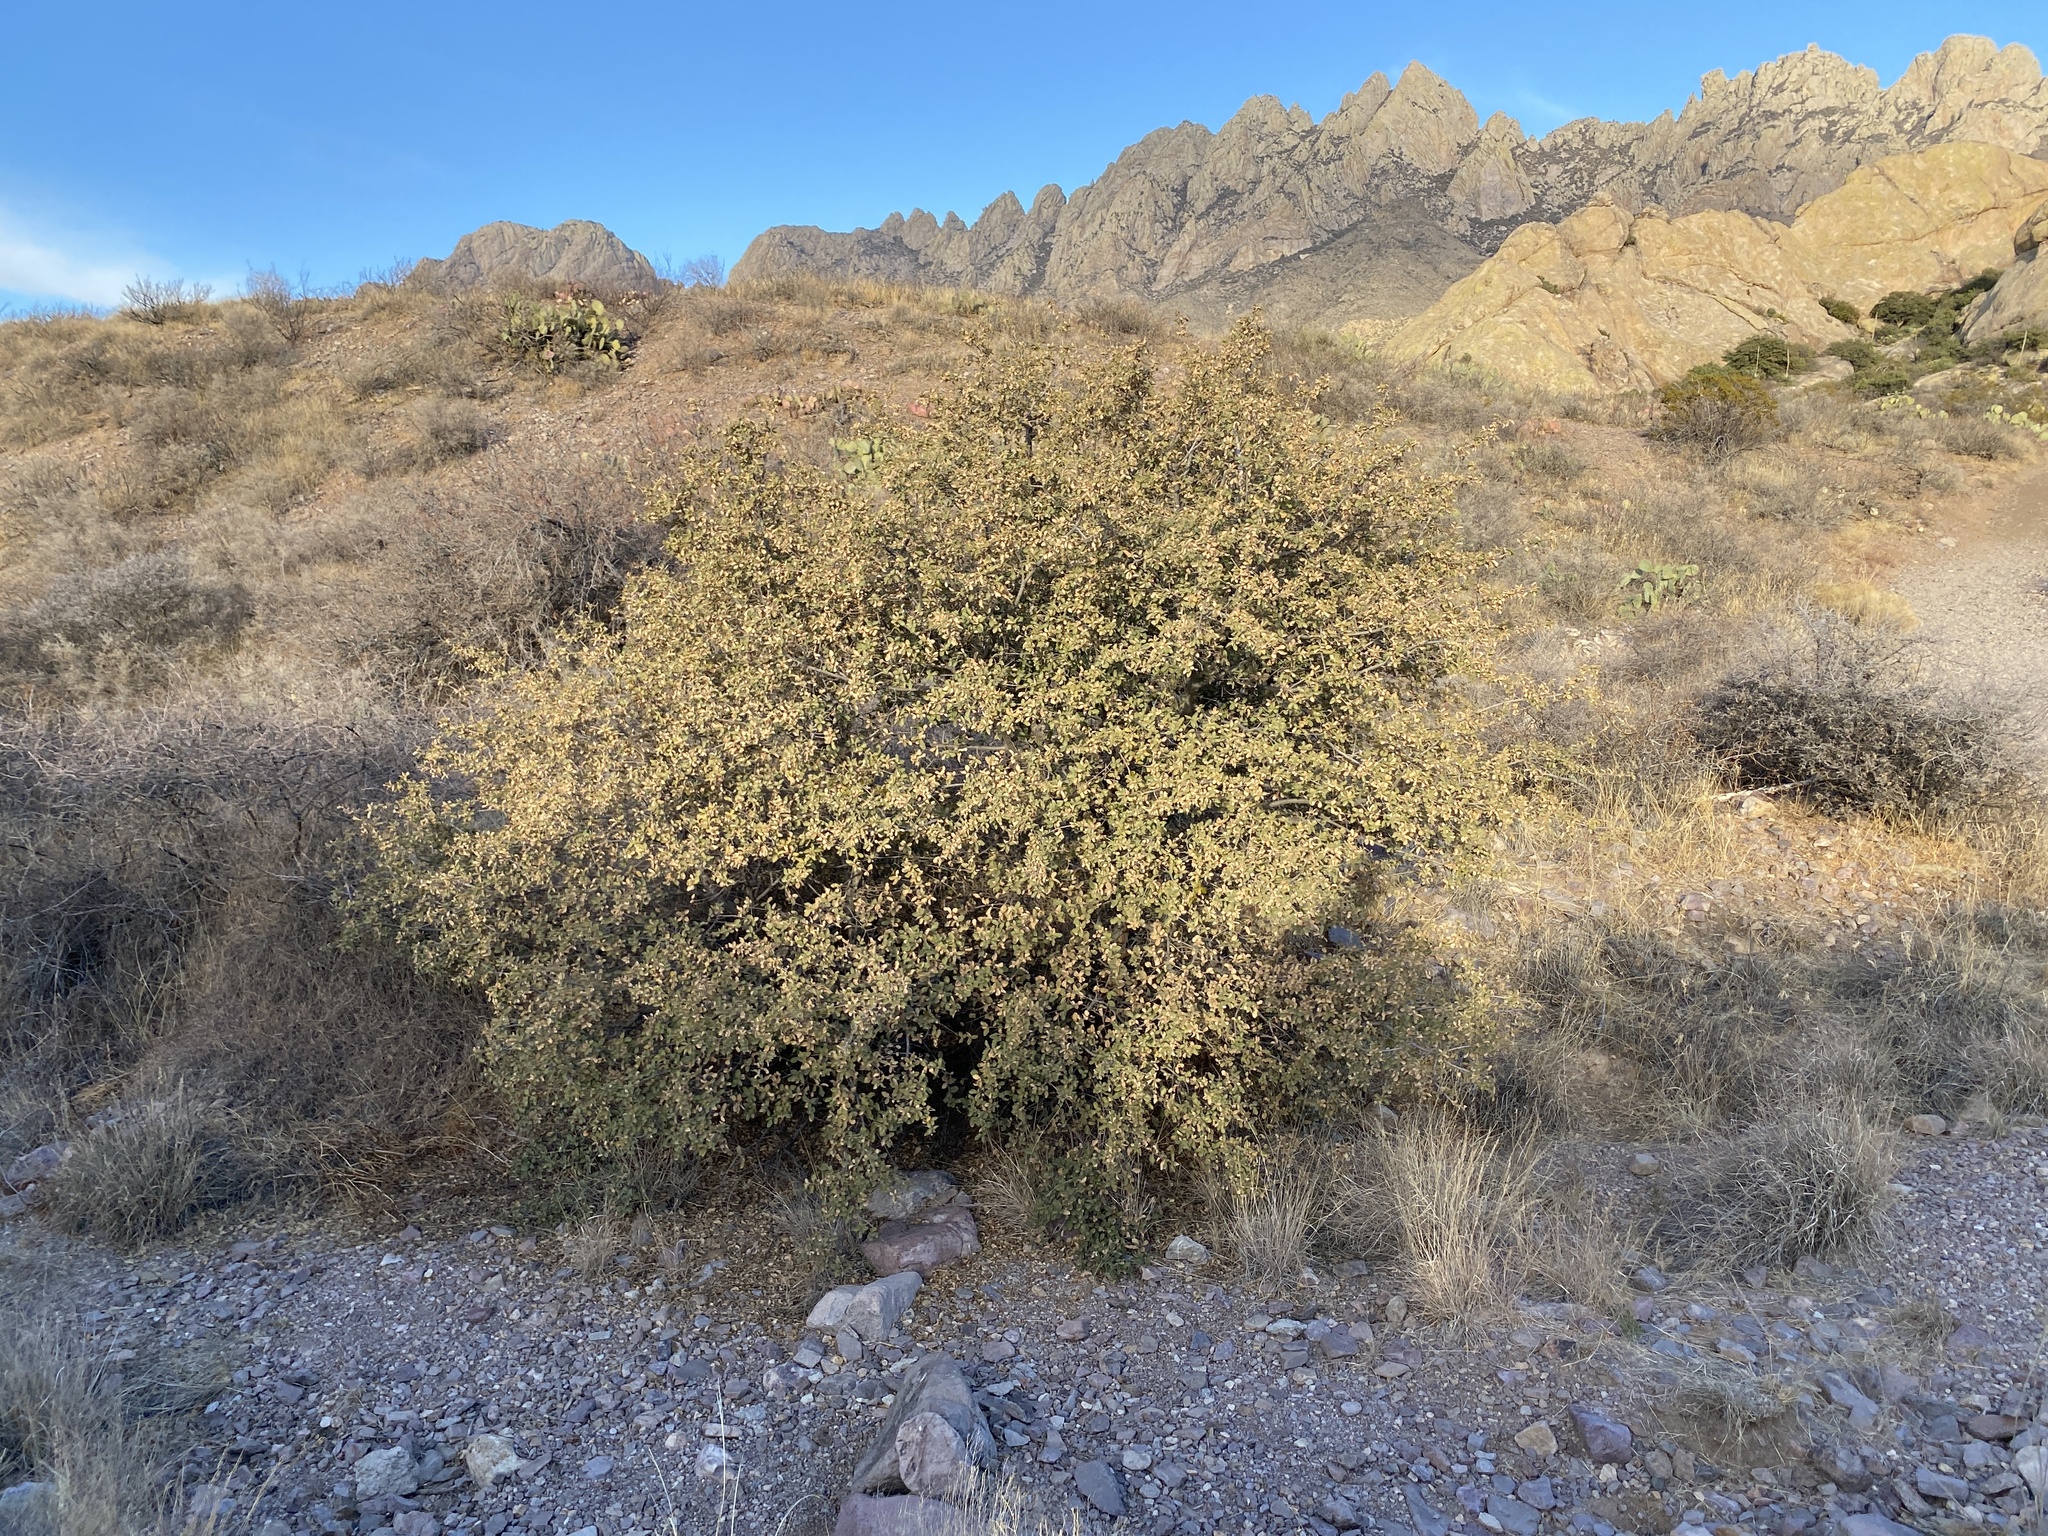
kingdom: Plantae
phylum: Tracheophyta
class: Magnoliopsida
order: Fagales
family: Fagaceae
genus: Quercus
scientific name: Quercus toumeyi
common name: Toumey oak
